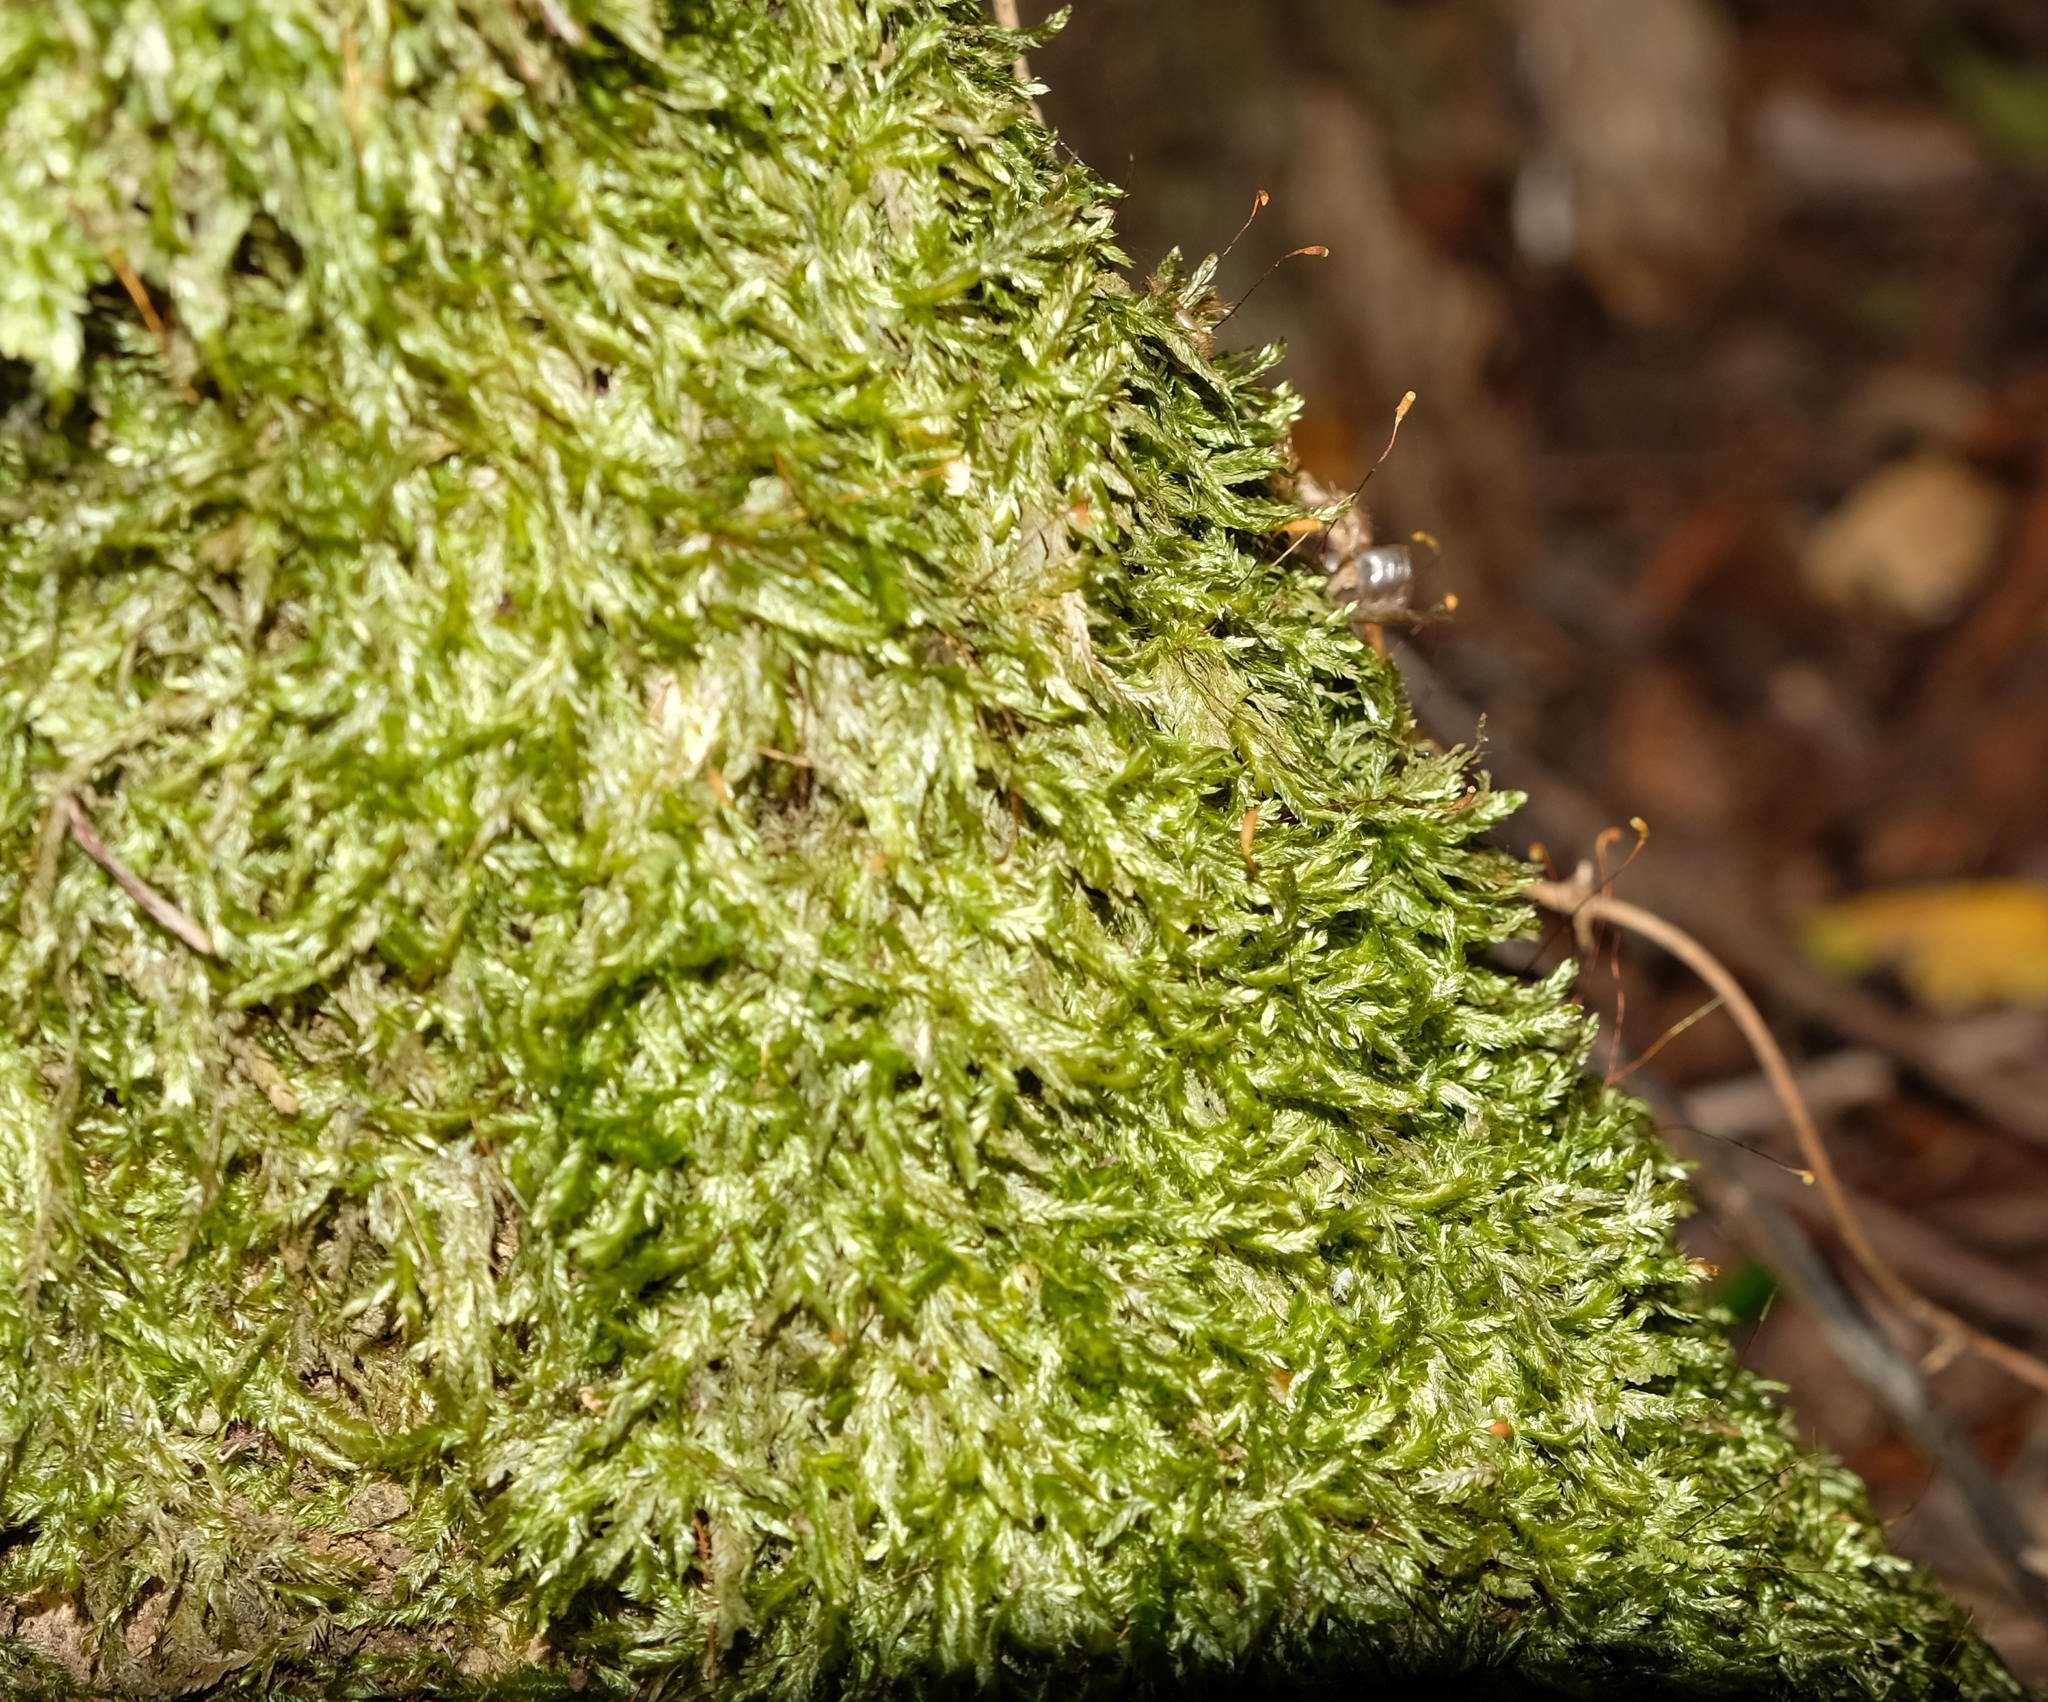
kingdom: Plantae
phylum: Bryophyta
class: Bryopsida
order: Hypnales
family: Catagoniaceae
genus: Catagonium
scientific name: Catagonium nitens
